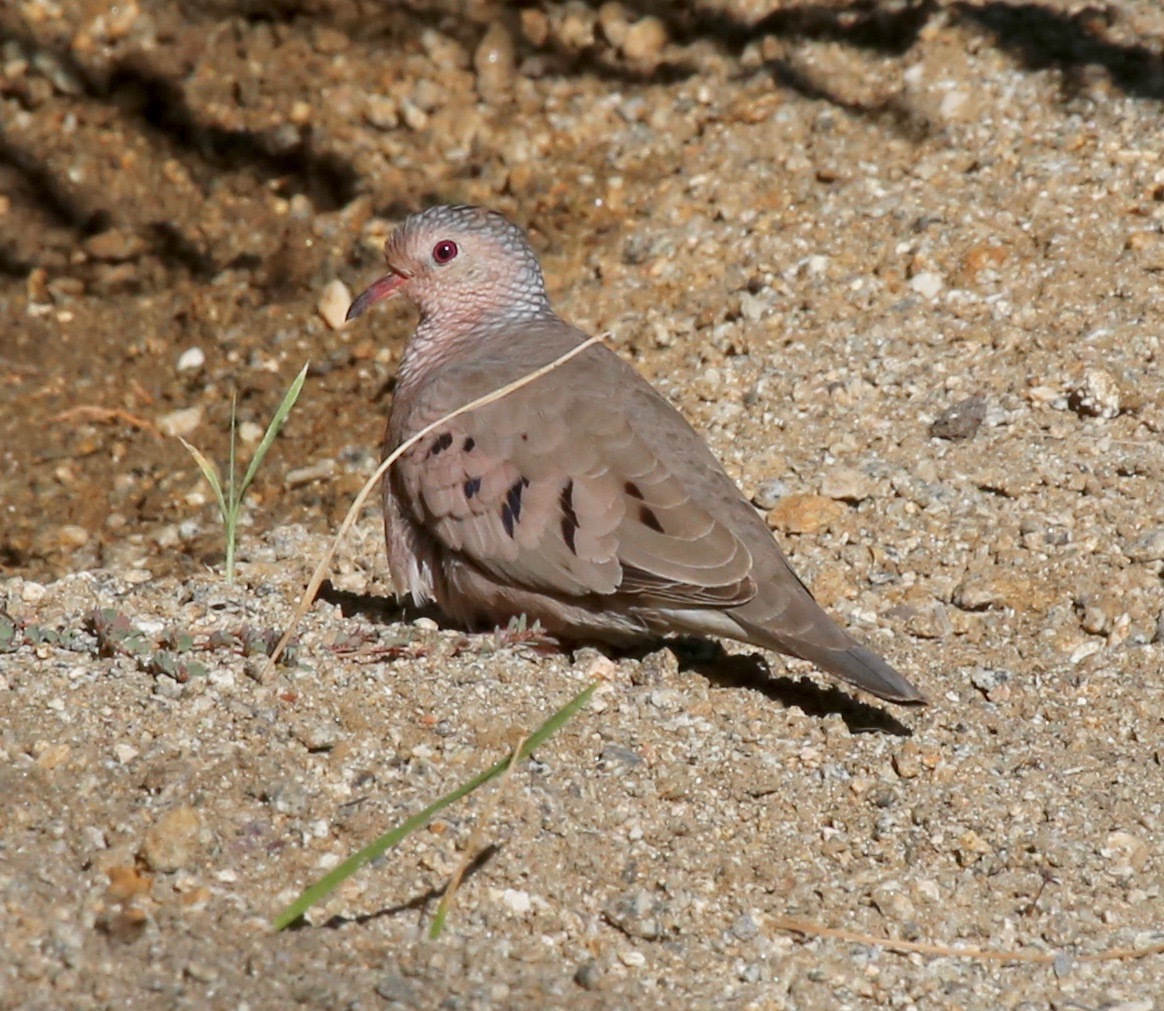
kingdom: Animalia
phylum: Chordata
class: Aves
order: Columbiformes
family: Columbidae
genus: Columbina
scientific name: Columbina passerina
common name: Common ground-dove
